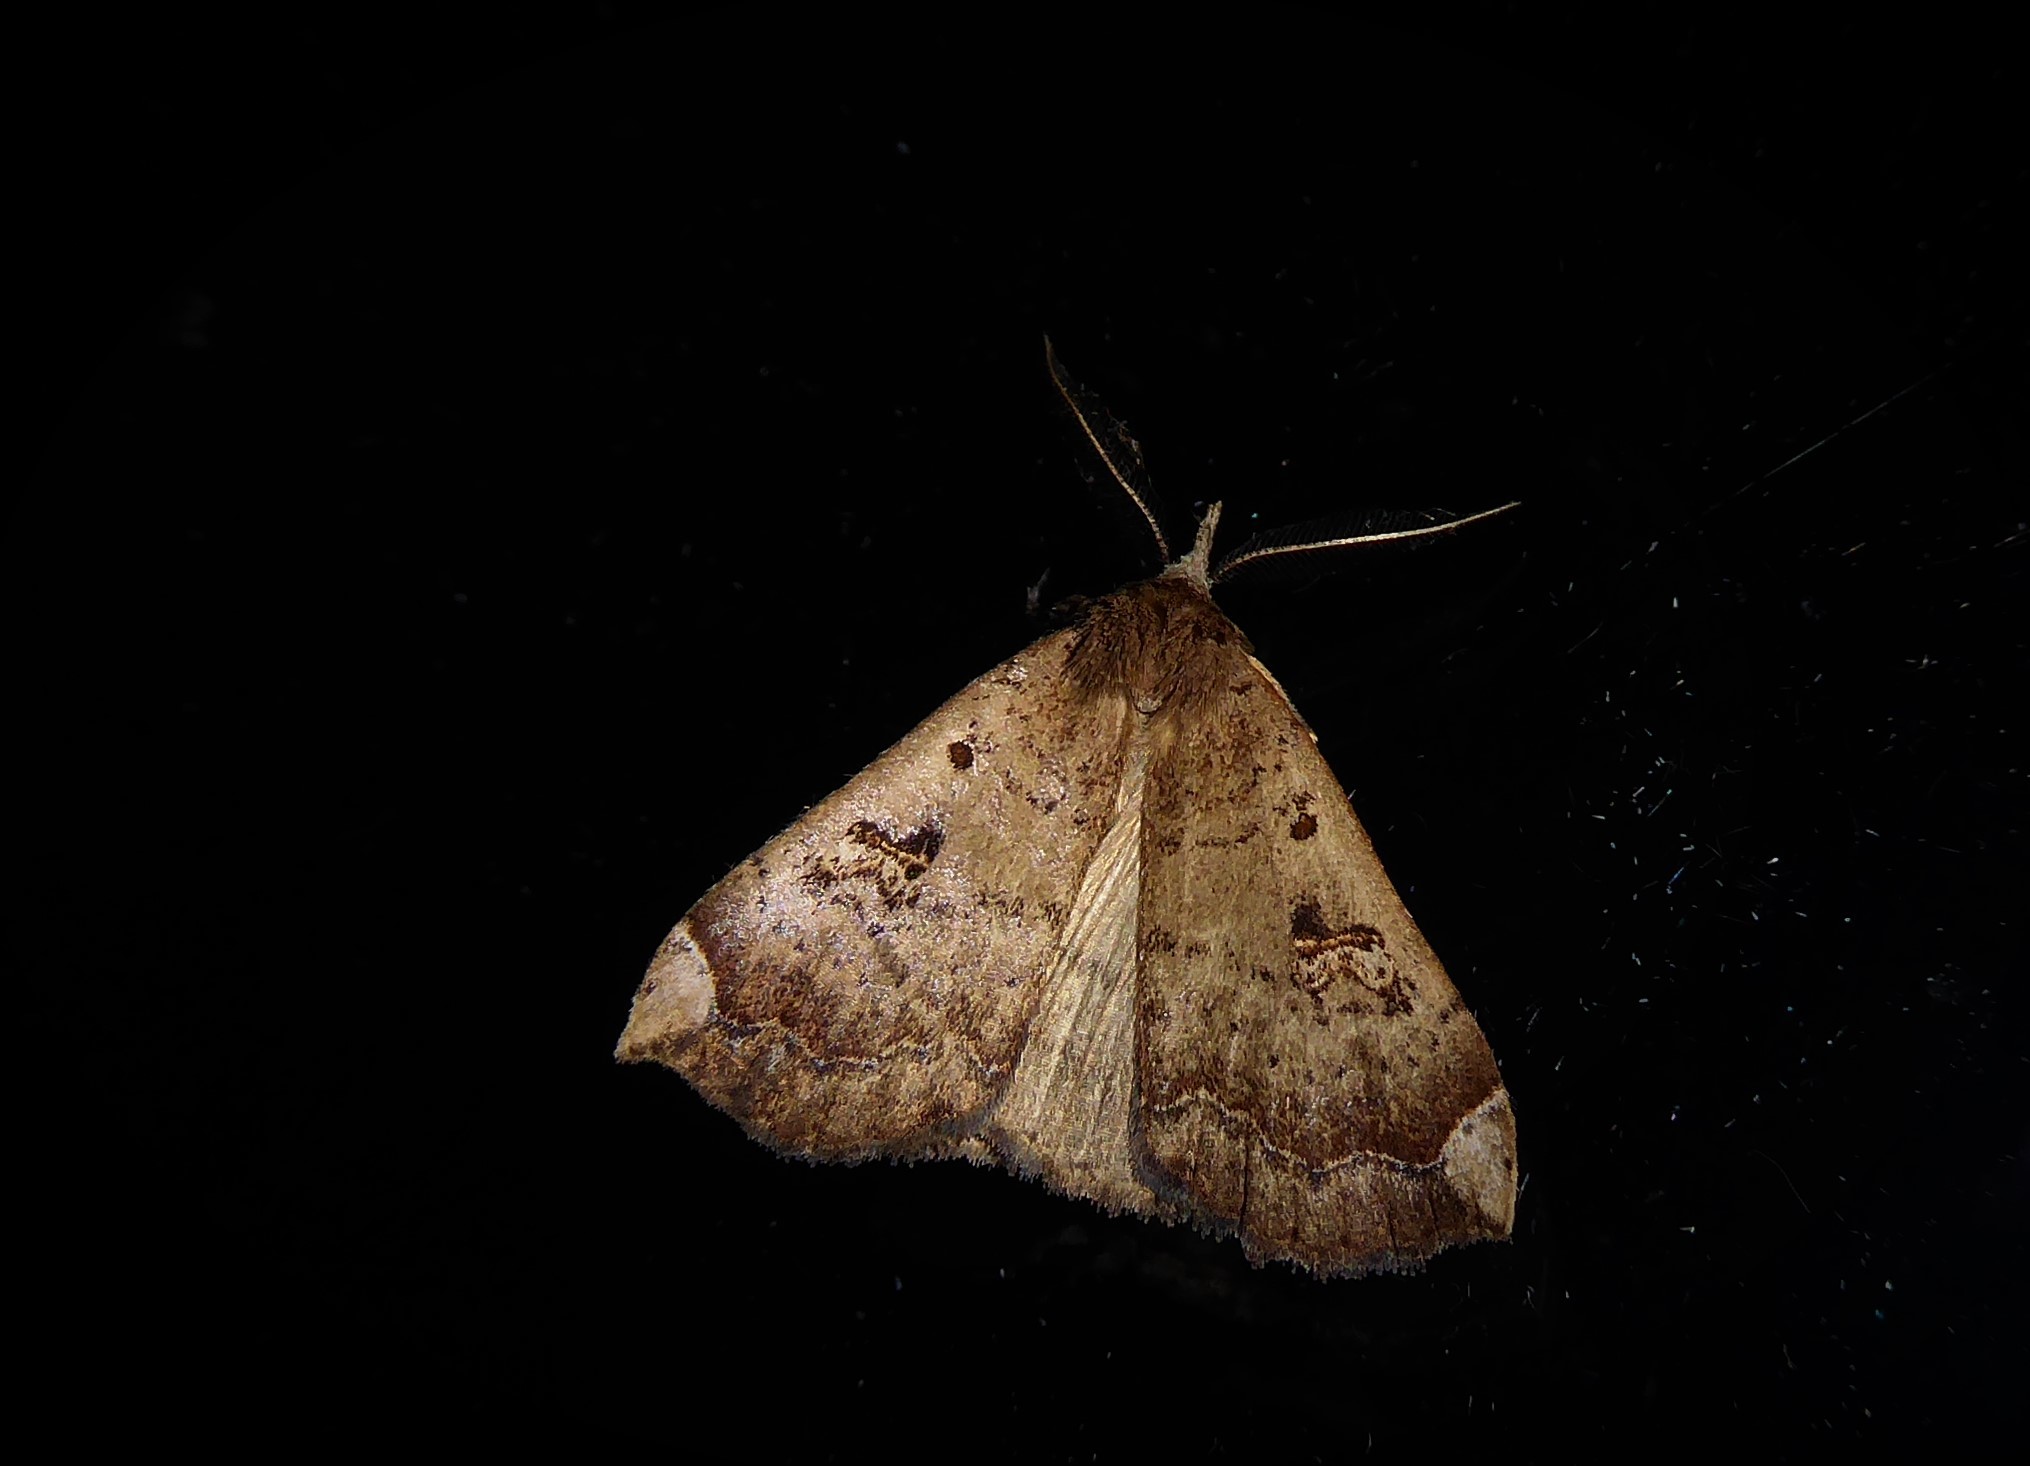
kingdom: Animalia
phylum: Arthropoda
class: Insecta
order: Lepidoptera
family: Erebidae
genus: Rhapsa
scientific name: Rhapsa scotosialis
